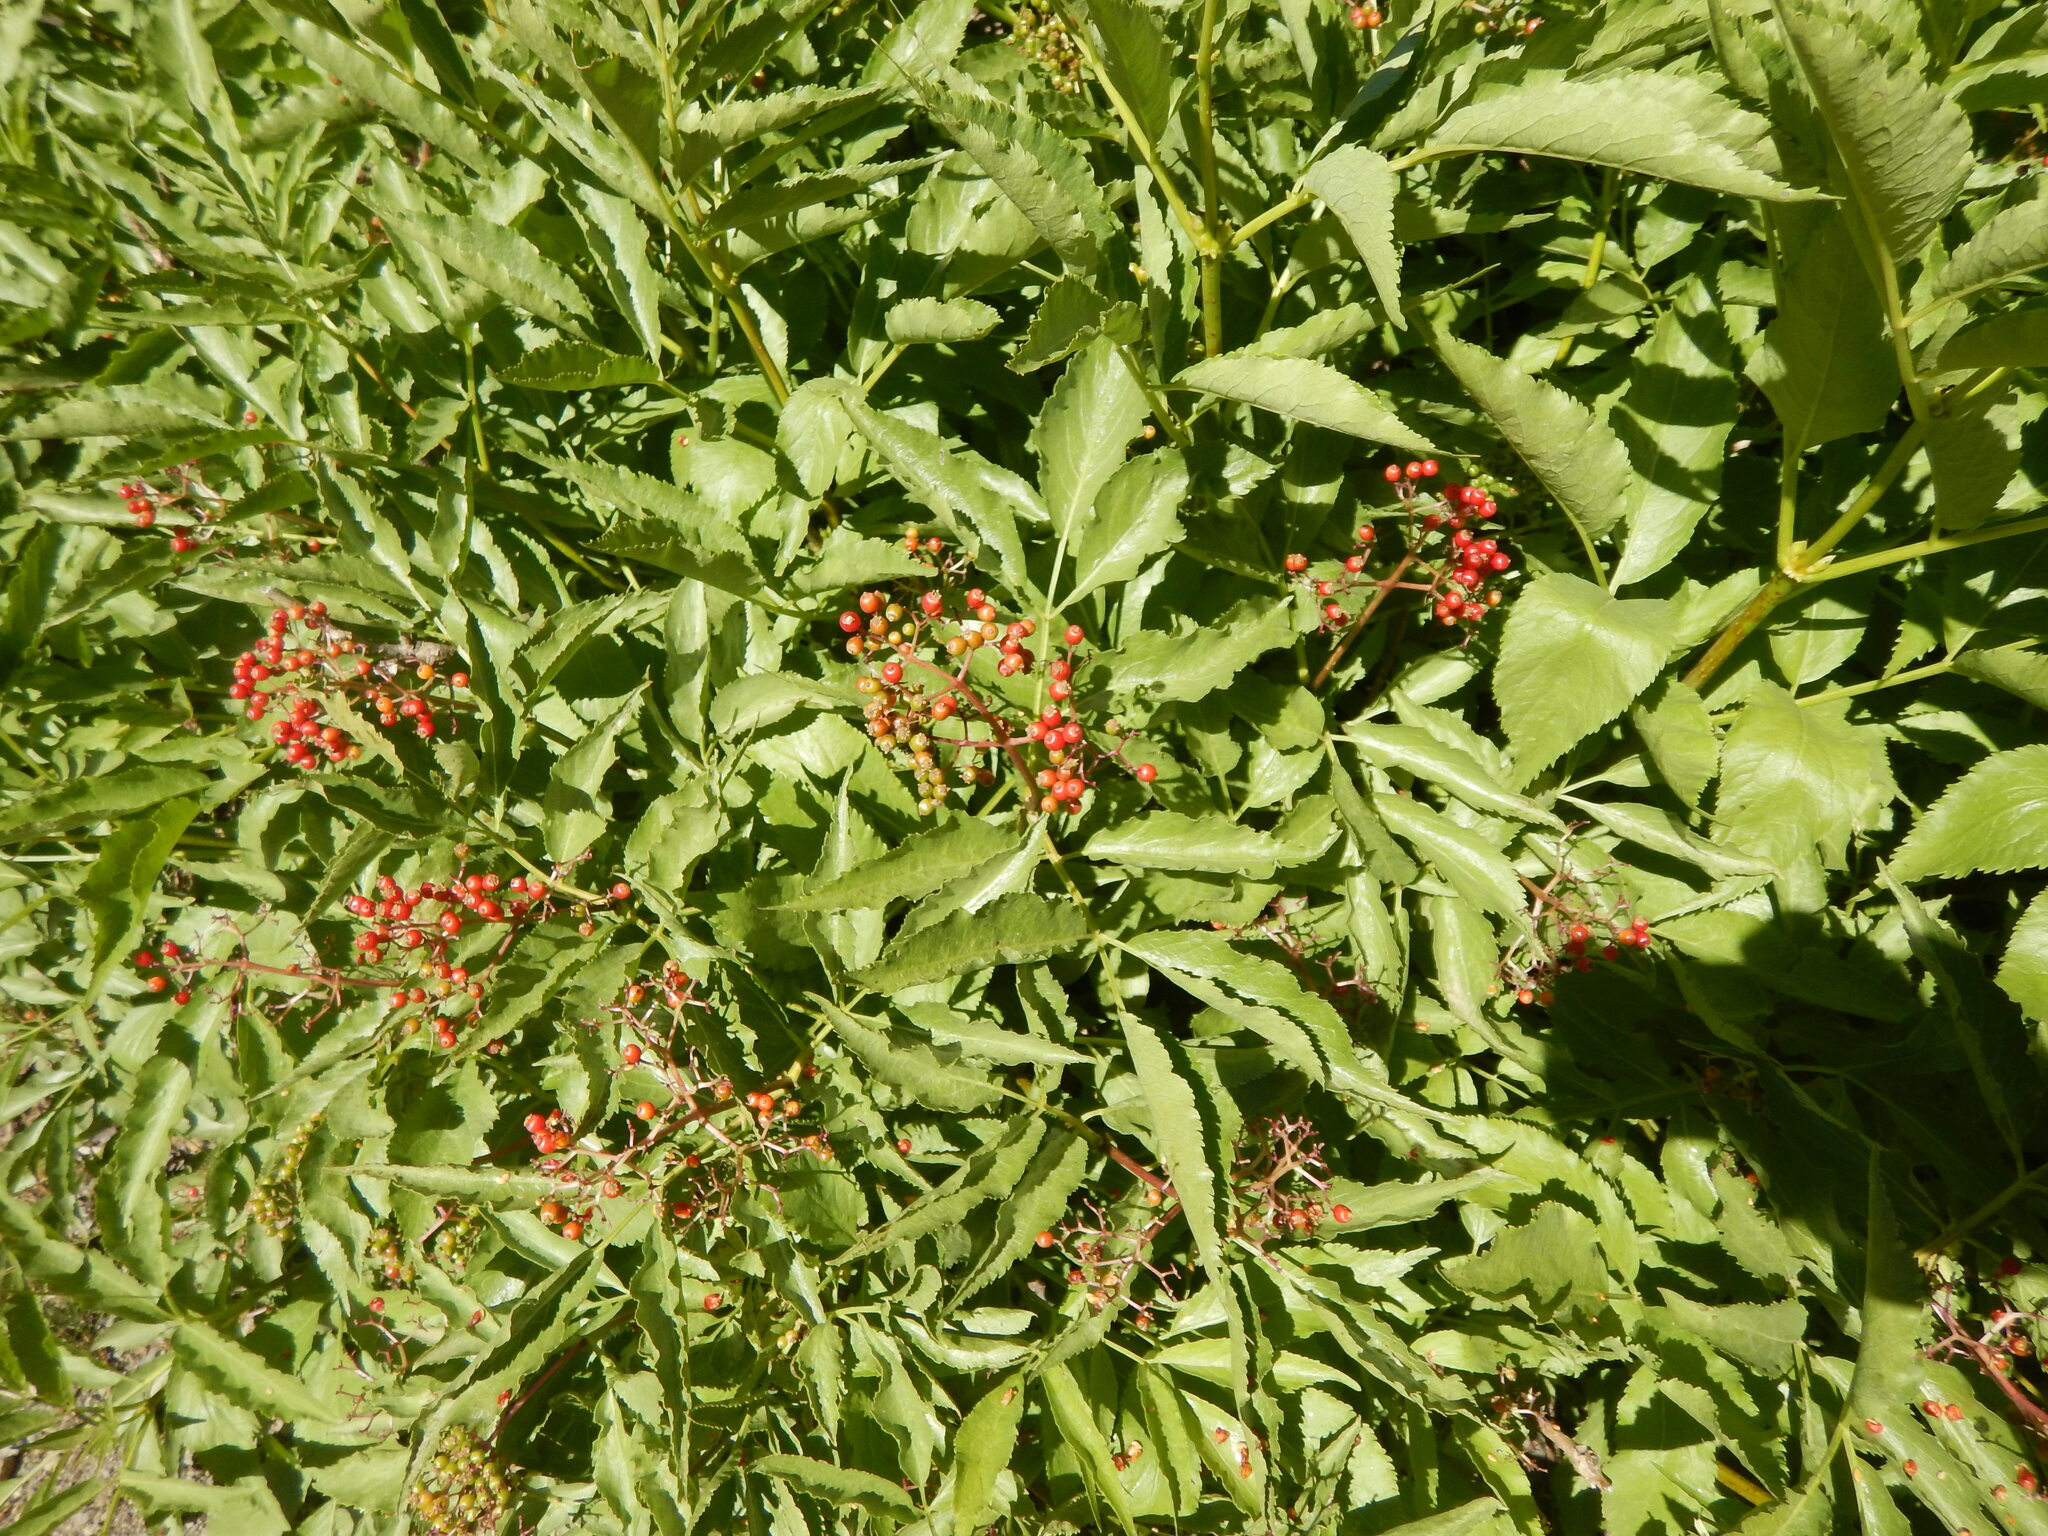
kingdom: Plantae
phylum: Tracheophyta
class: Magnoliopsida
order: Dipsacales
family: Viburnaceae
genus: Sambucus
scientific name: Sambucus racemosa
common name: Red-berried elder
